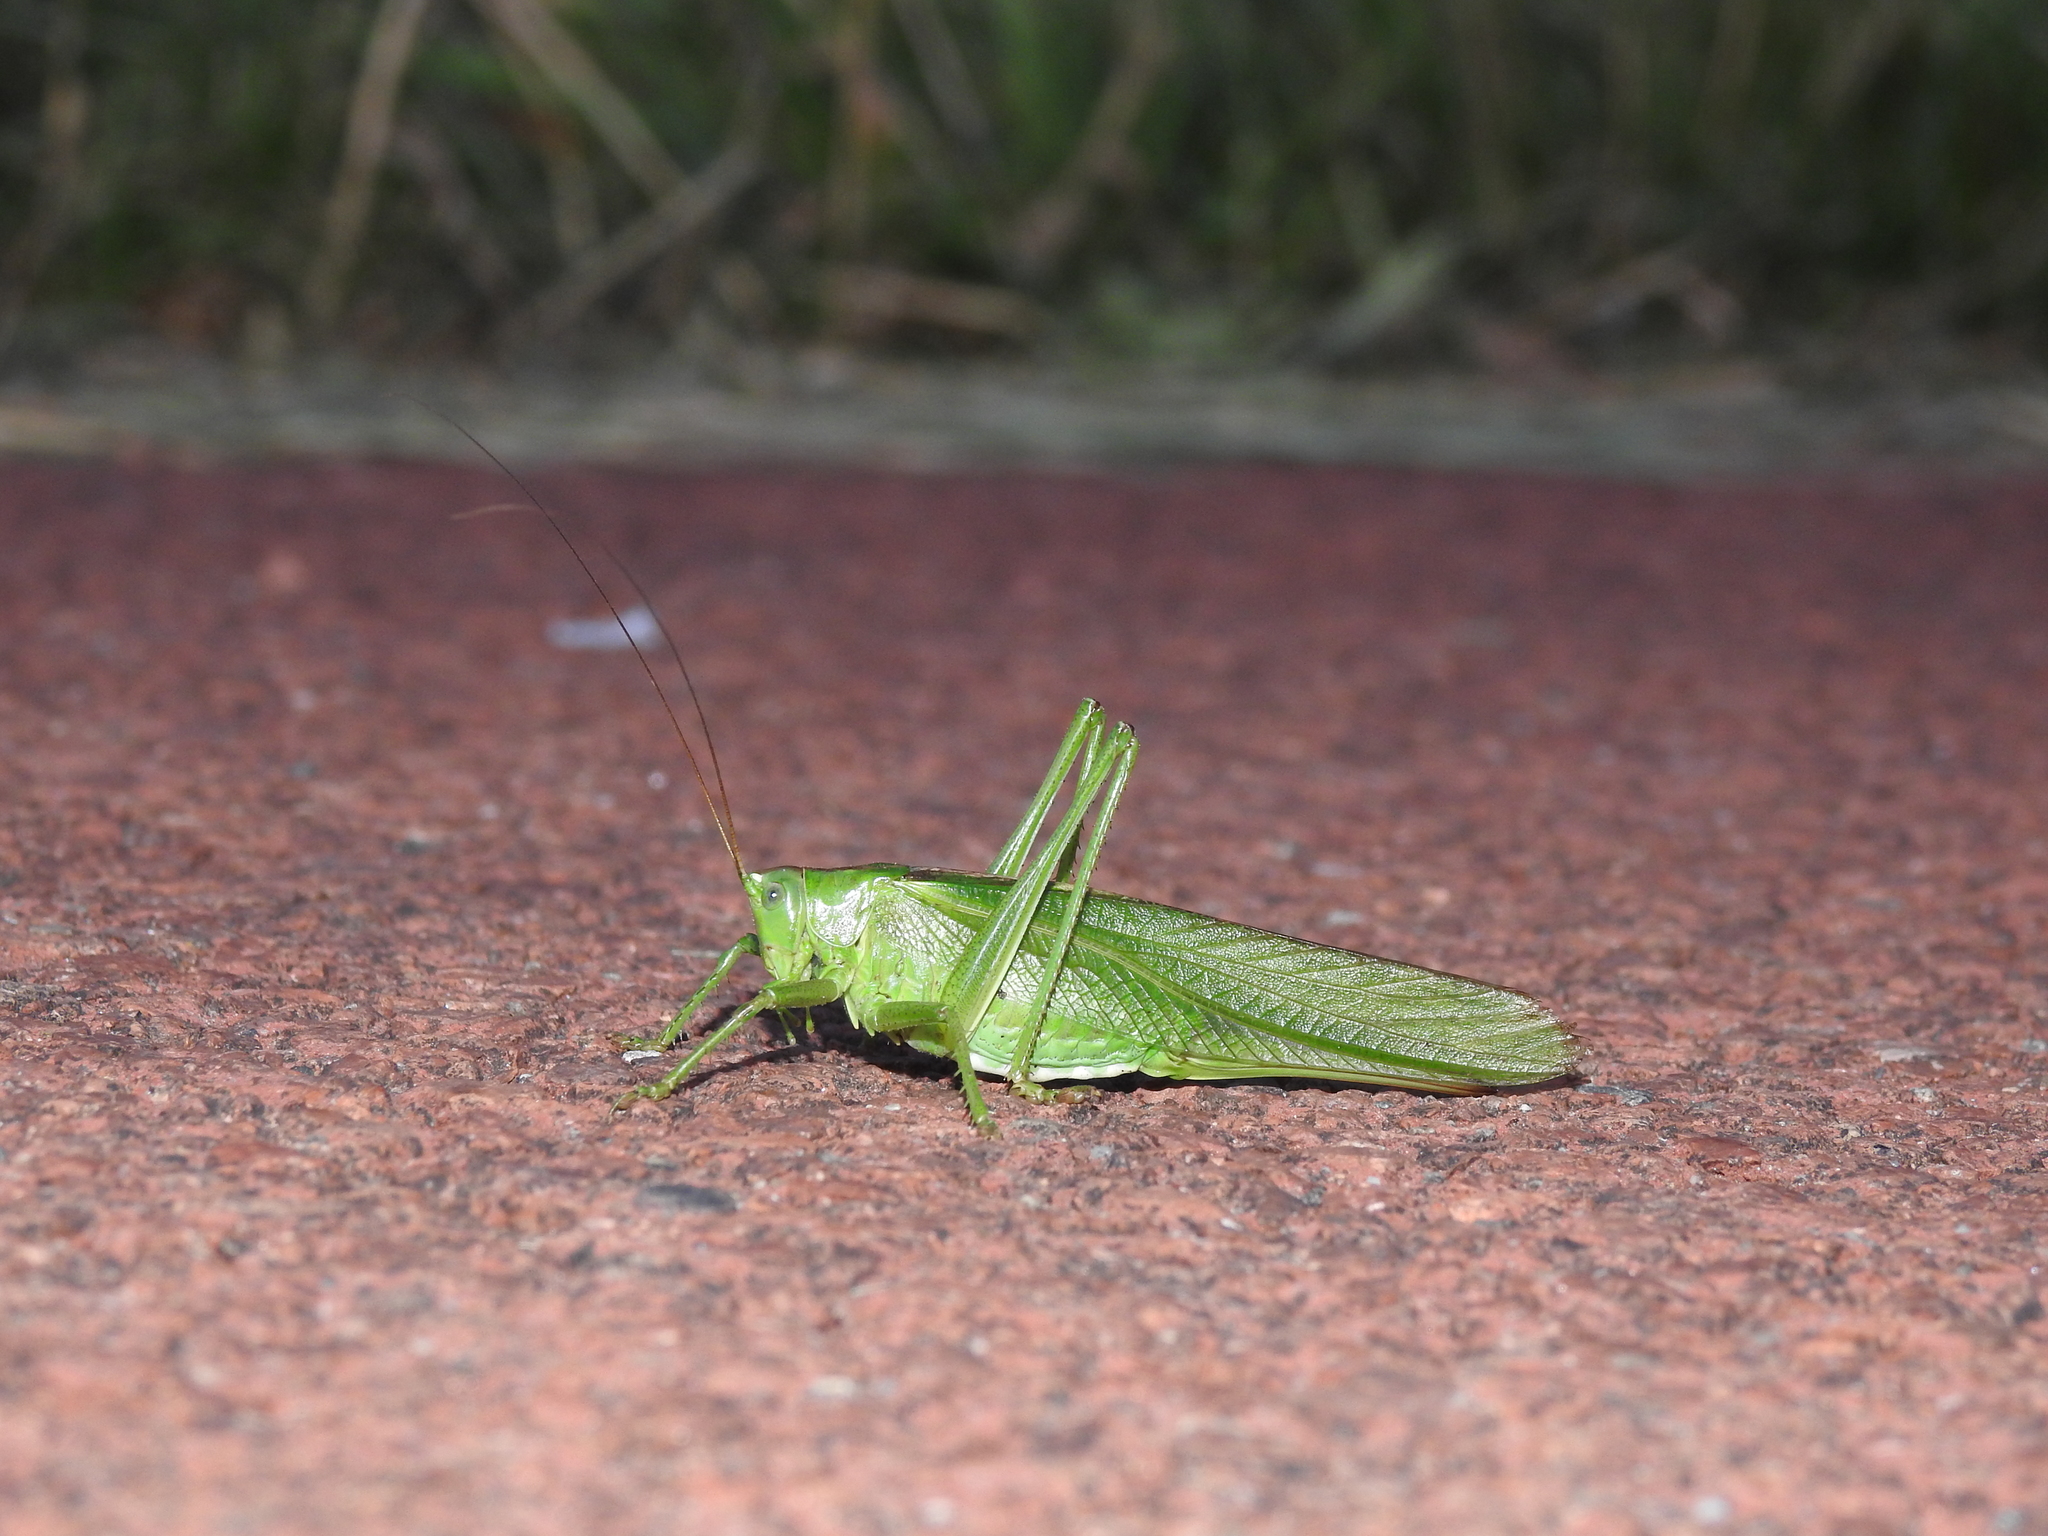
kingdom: Animalia
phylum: Arthropoda
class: Insecta
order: Orthoptera
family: Tettigoniidae
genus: Tettigonia
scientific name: Tettigonia viridissima
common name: Great green bush-cricket
